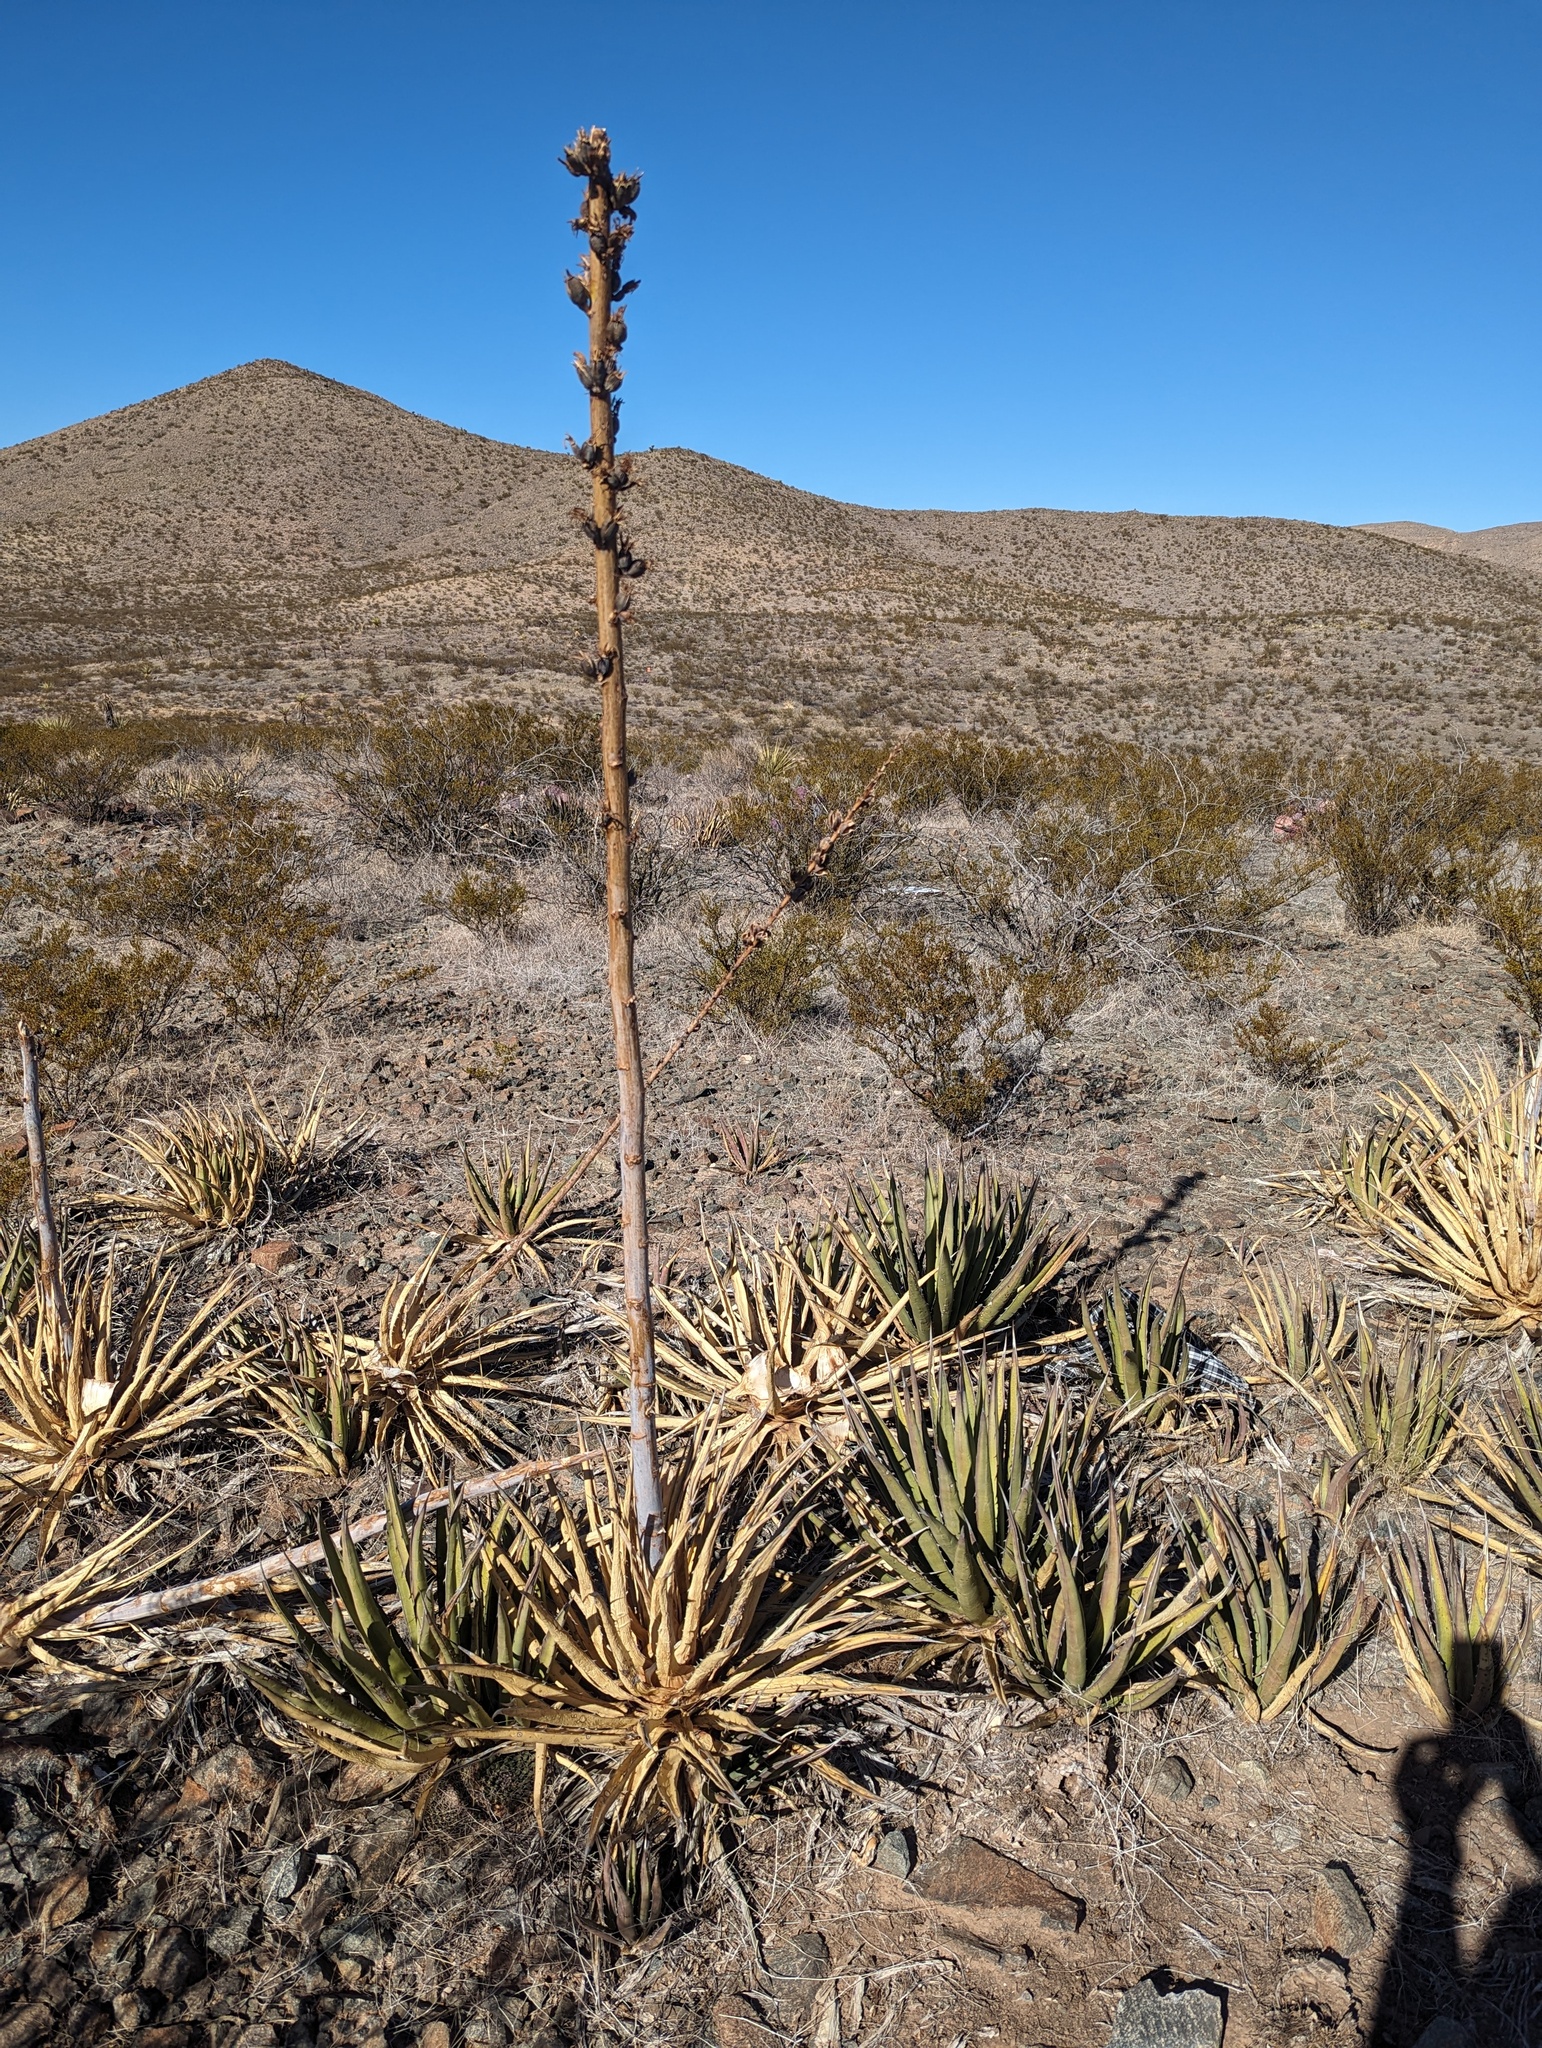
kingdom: Plantae
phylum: Tracheophyta
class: Liliopsida
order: Asparagales
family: Asparagaceae
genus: Agave
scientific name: Agave lechuguilla
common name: Lecheguilla agave
